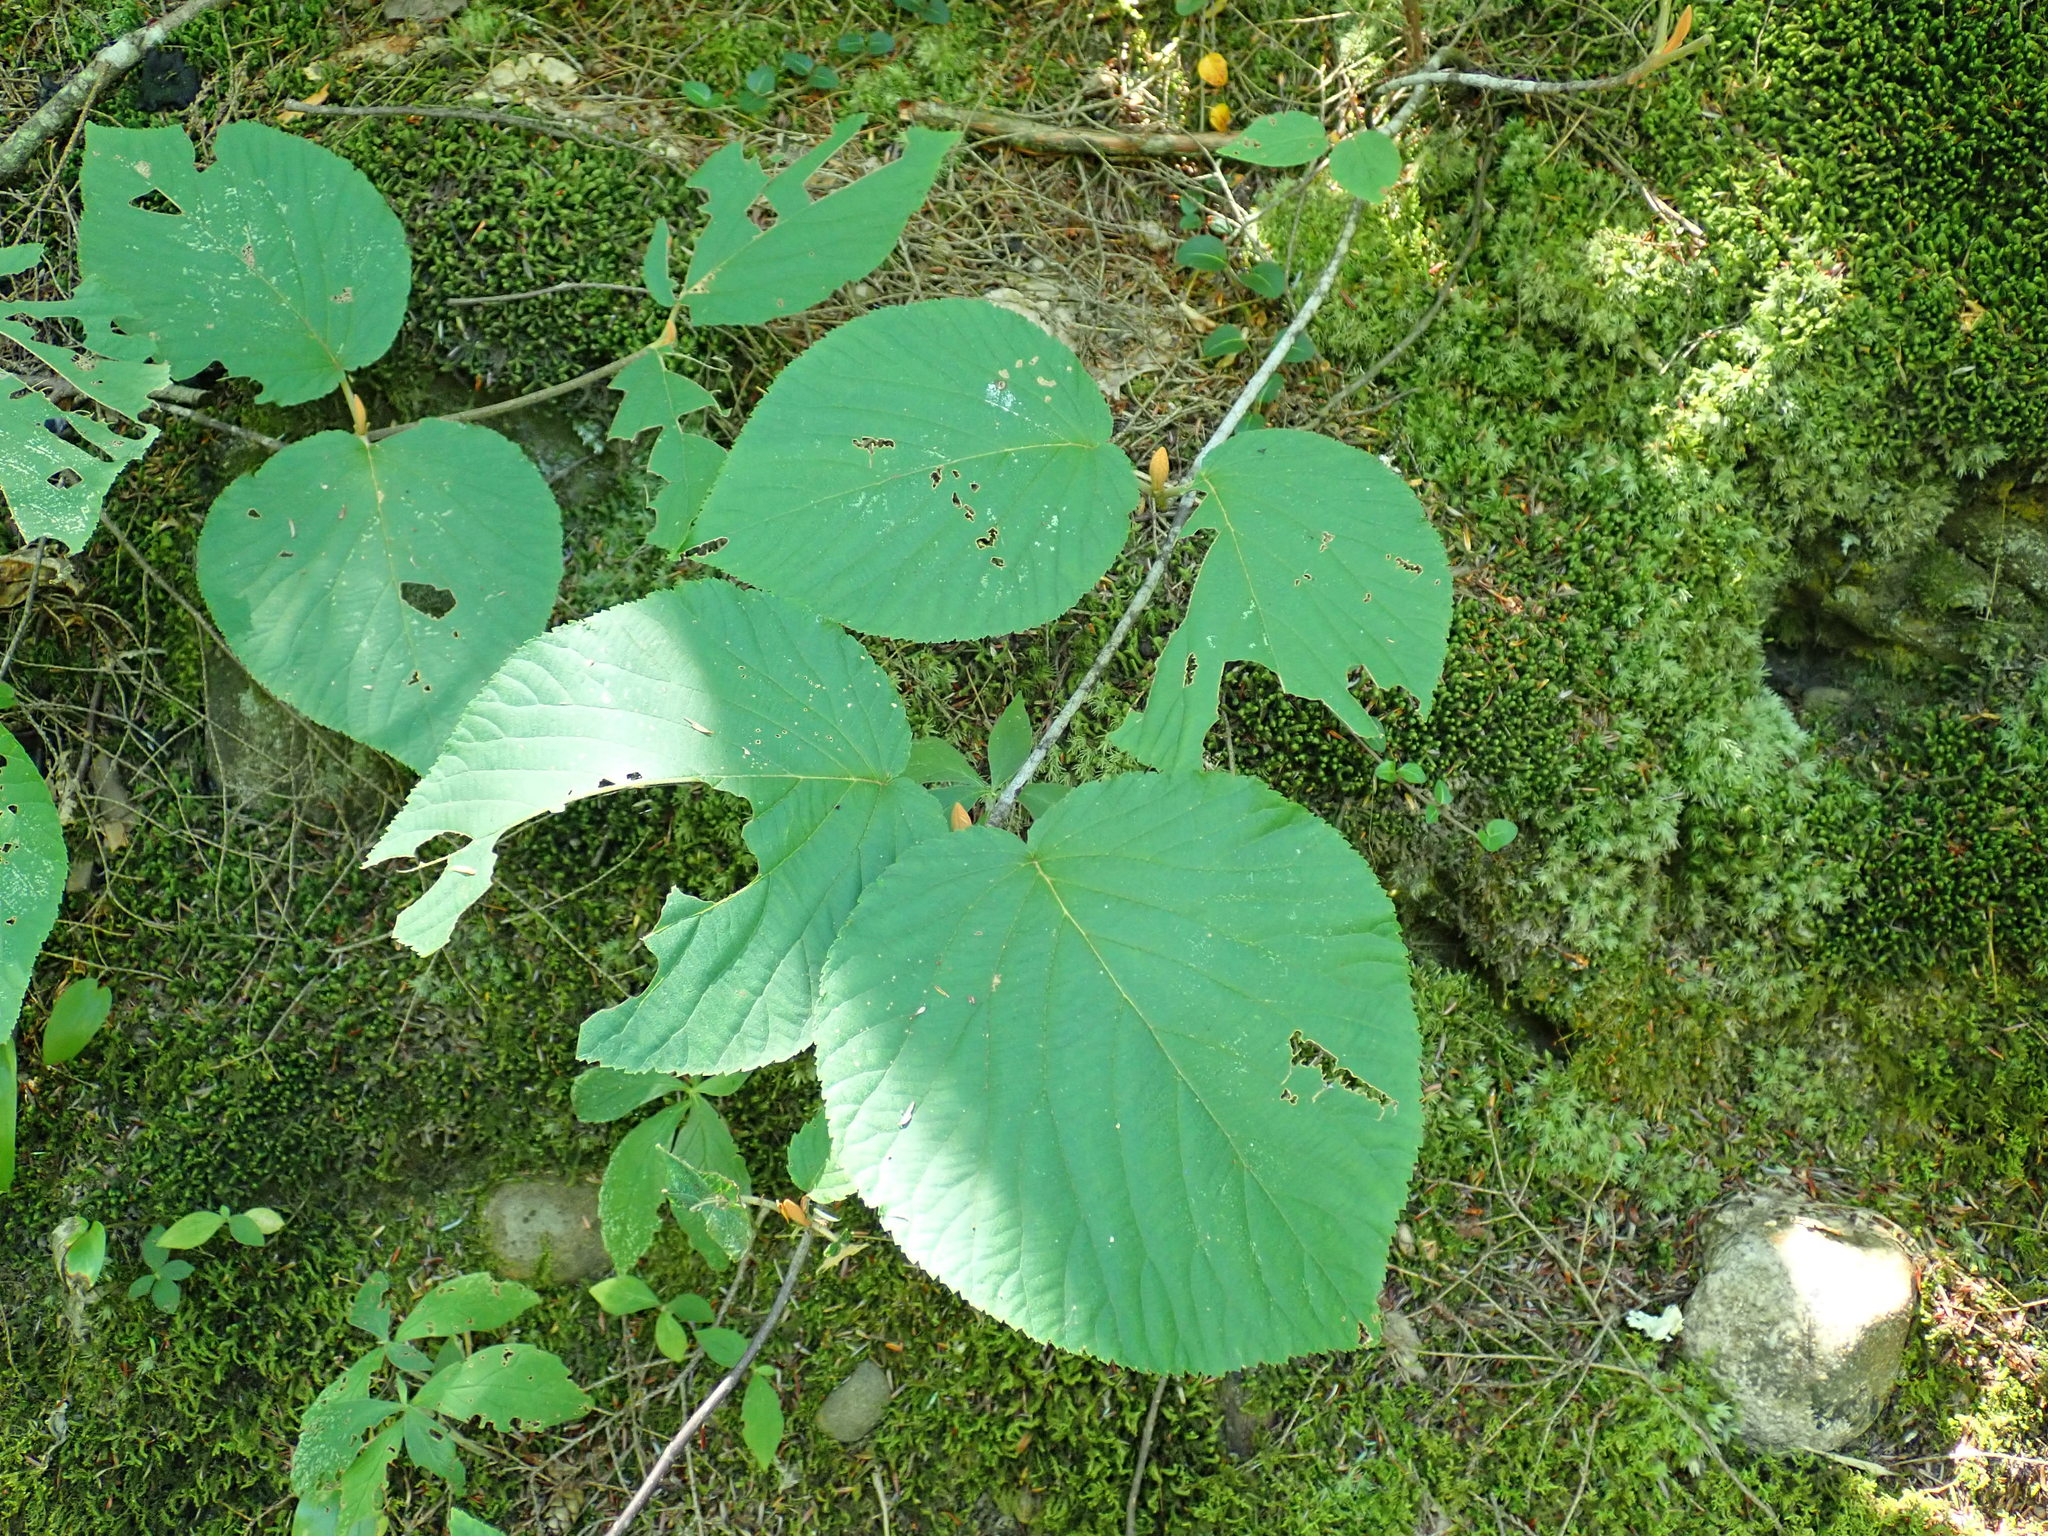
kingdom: Plantae
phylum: Tracheophyta
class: Magnoliopsida
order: Dipsacales
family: Viburnaceae
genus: Viburnum
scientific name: Viburnum lantanoides
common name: Hobblebush
